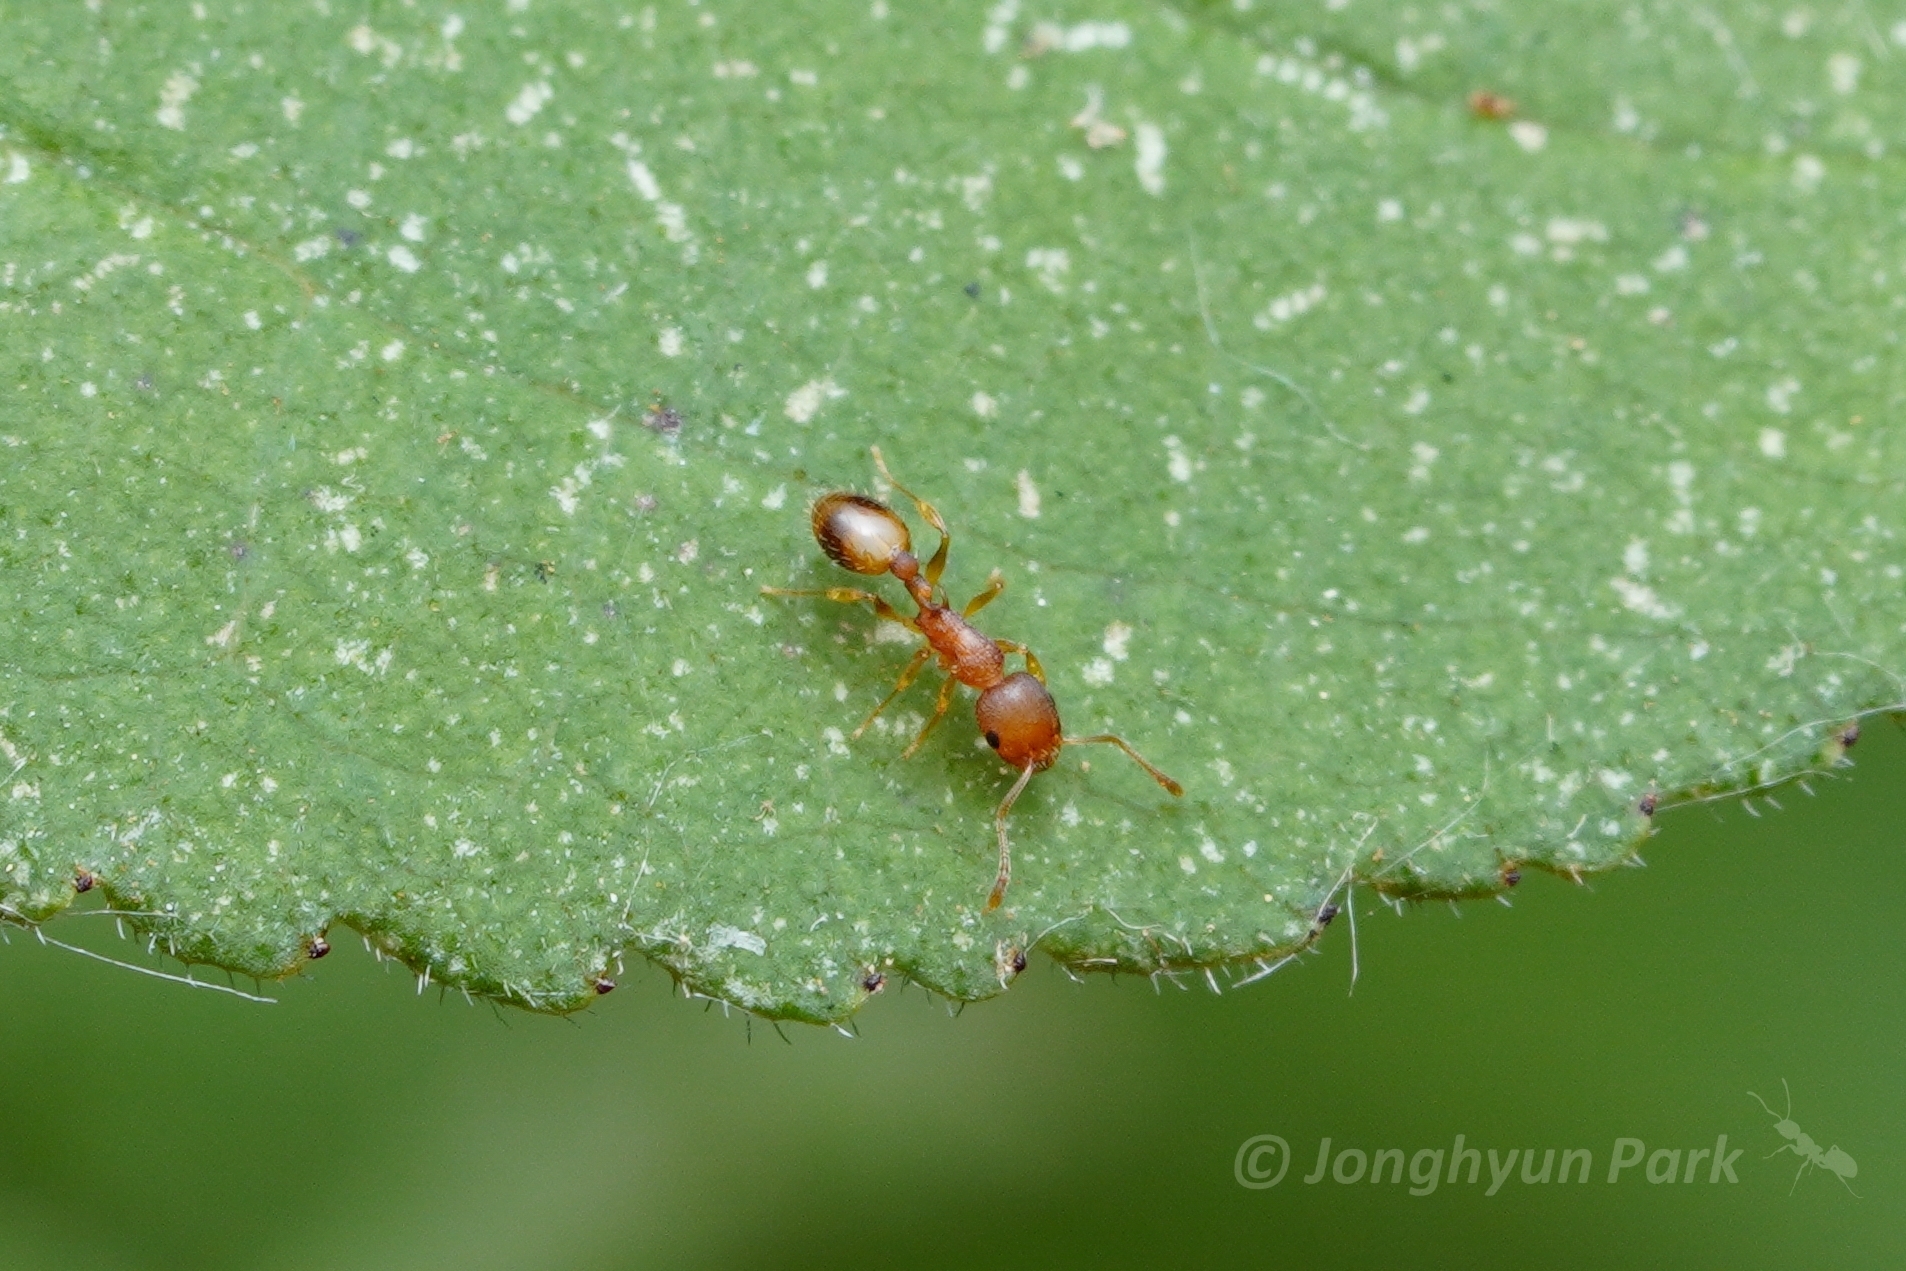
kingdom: Animalia
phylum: Arthropoda
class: Insecta
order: Hymenoptera
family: Formicidae
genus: Temnothorax
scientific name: Temnothorax curvispinosus
